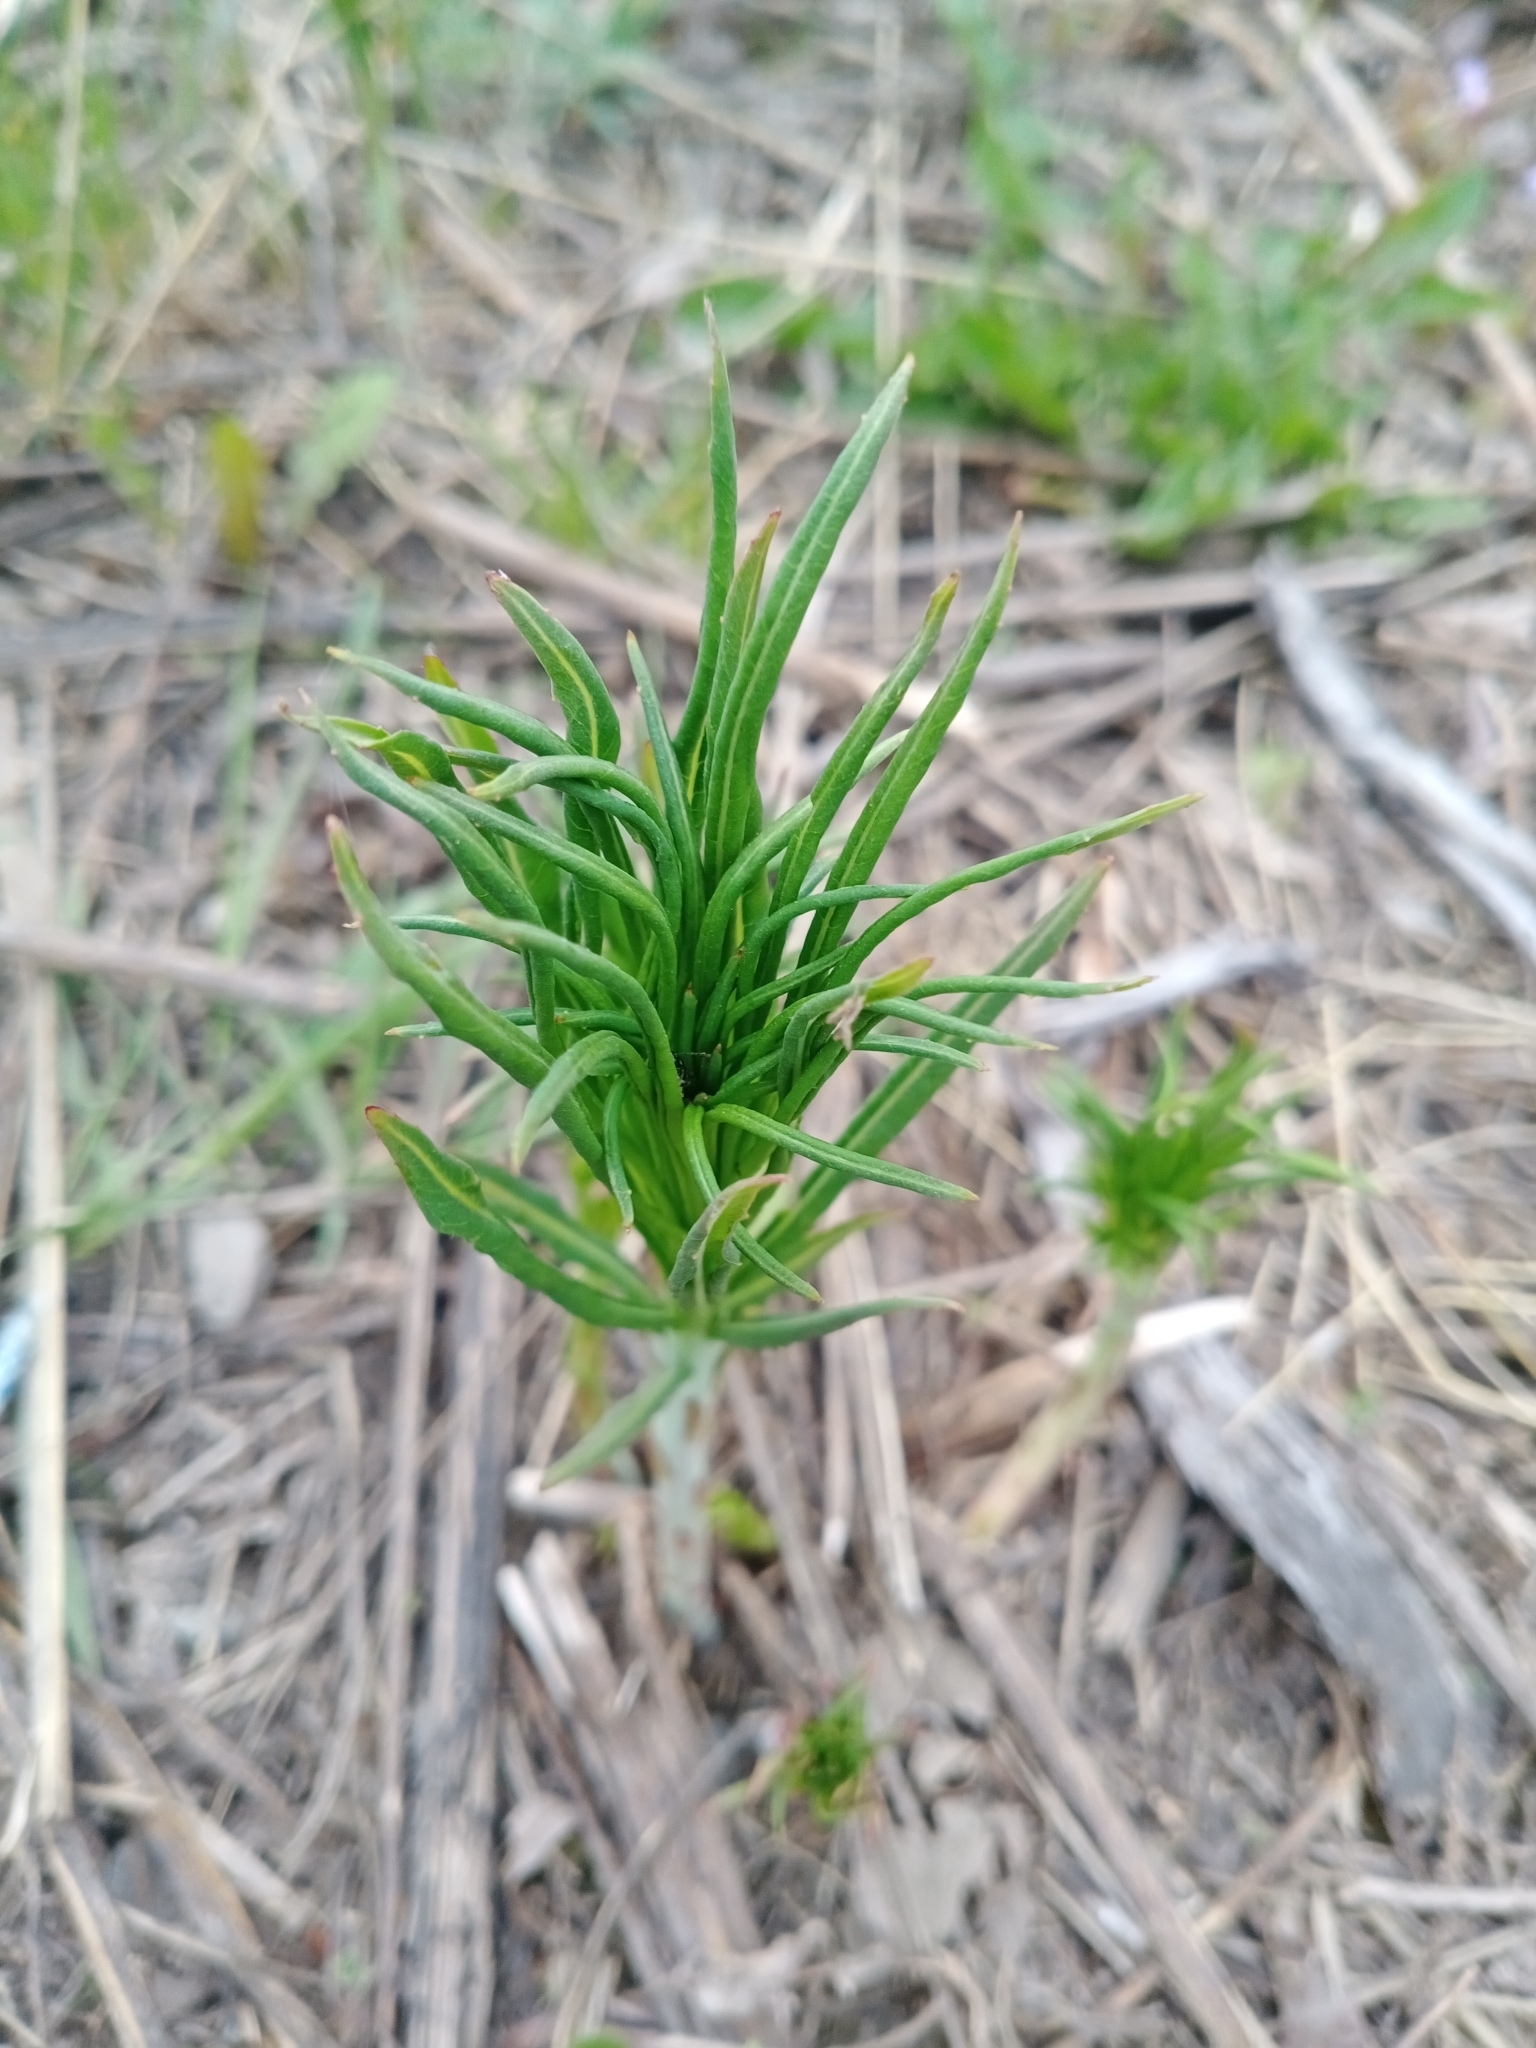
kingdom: Plantae
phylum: Tracheophyta
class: Magnoliopsida
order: Myrtales
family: Onagraceae
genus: Chamaenerion
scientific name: Chamaenerion angustifolium
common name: Fireweed
